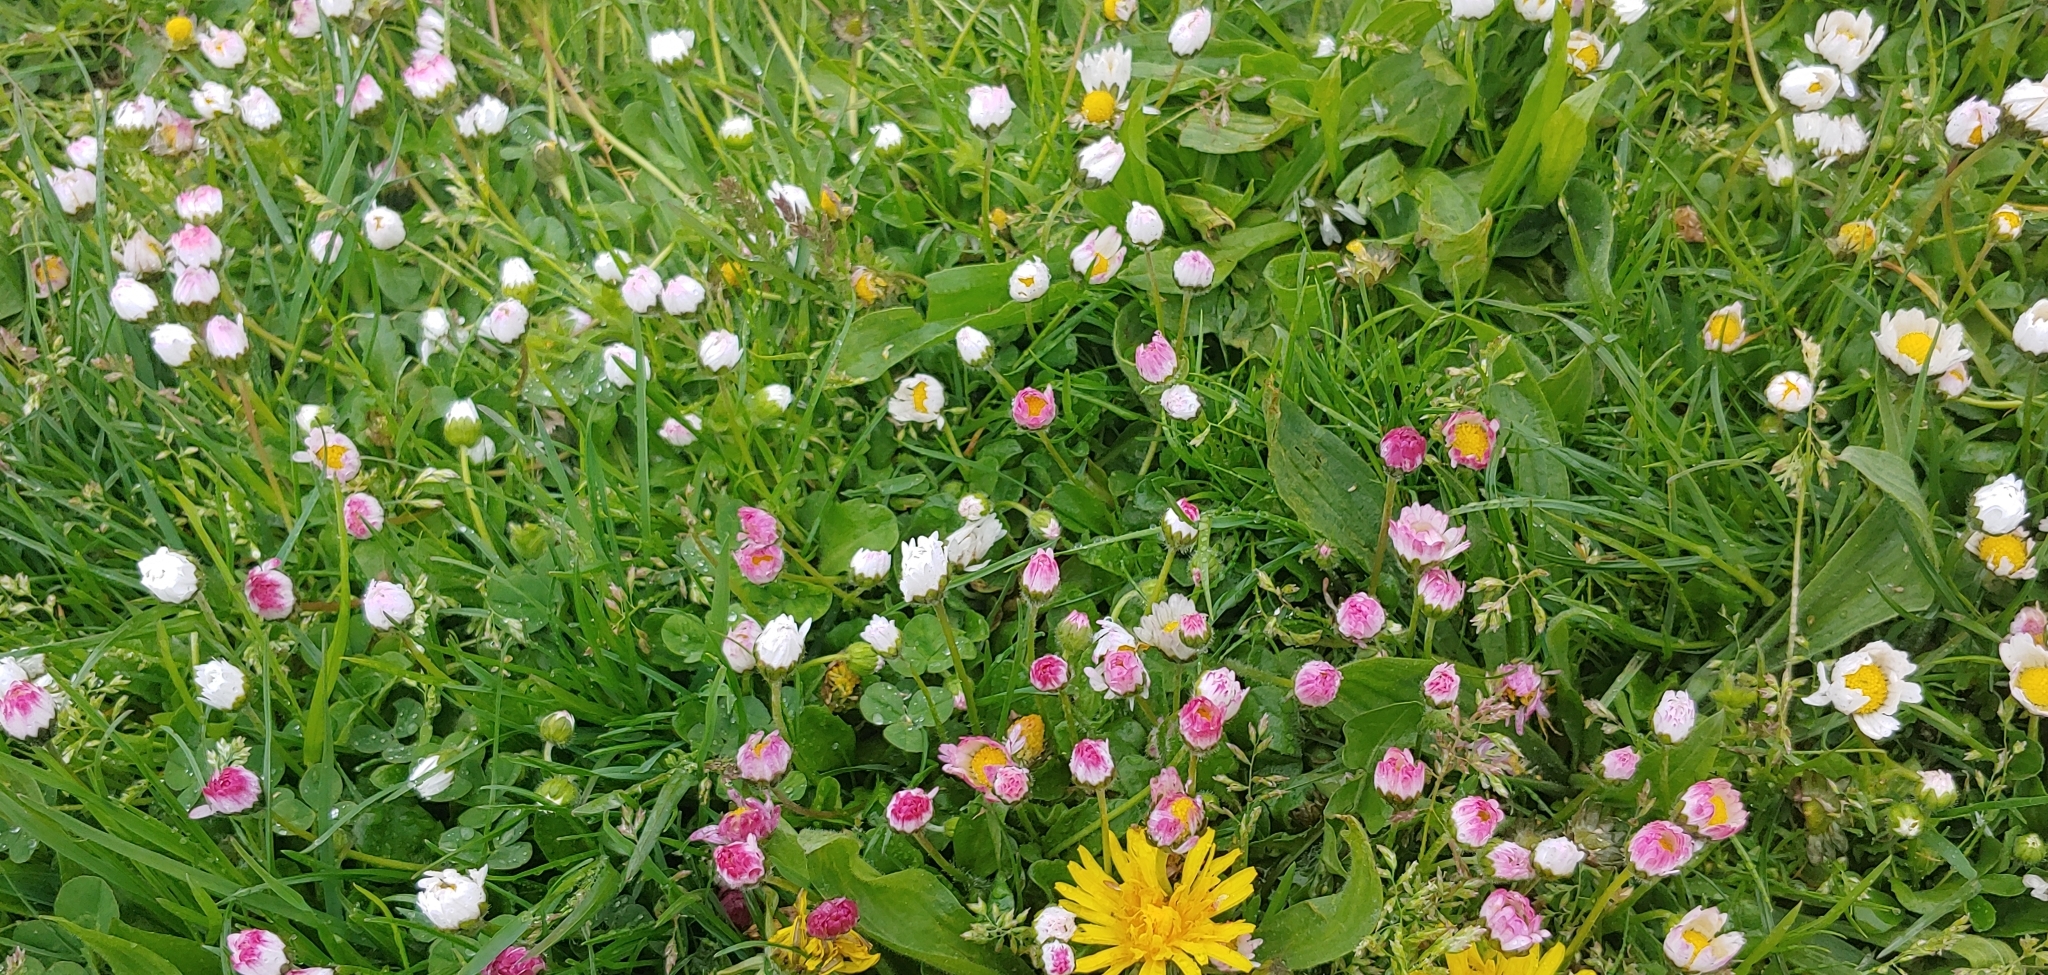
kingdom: Plantae
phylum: Tracheophyta
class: Magnoliopsida
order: Asterales
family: Asteraceae
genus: Bellis
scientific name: Bellis perennis
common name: Lawndaisy
